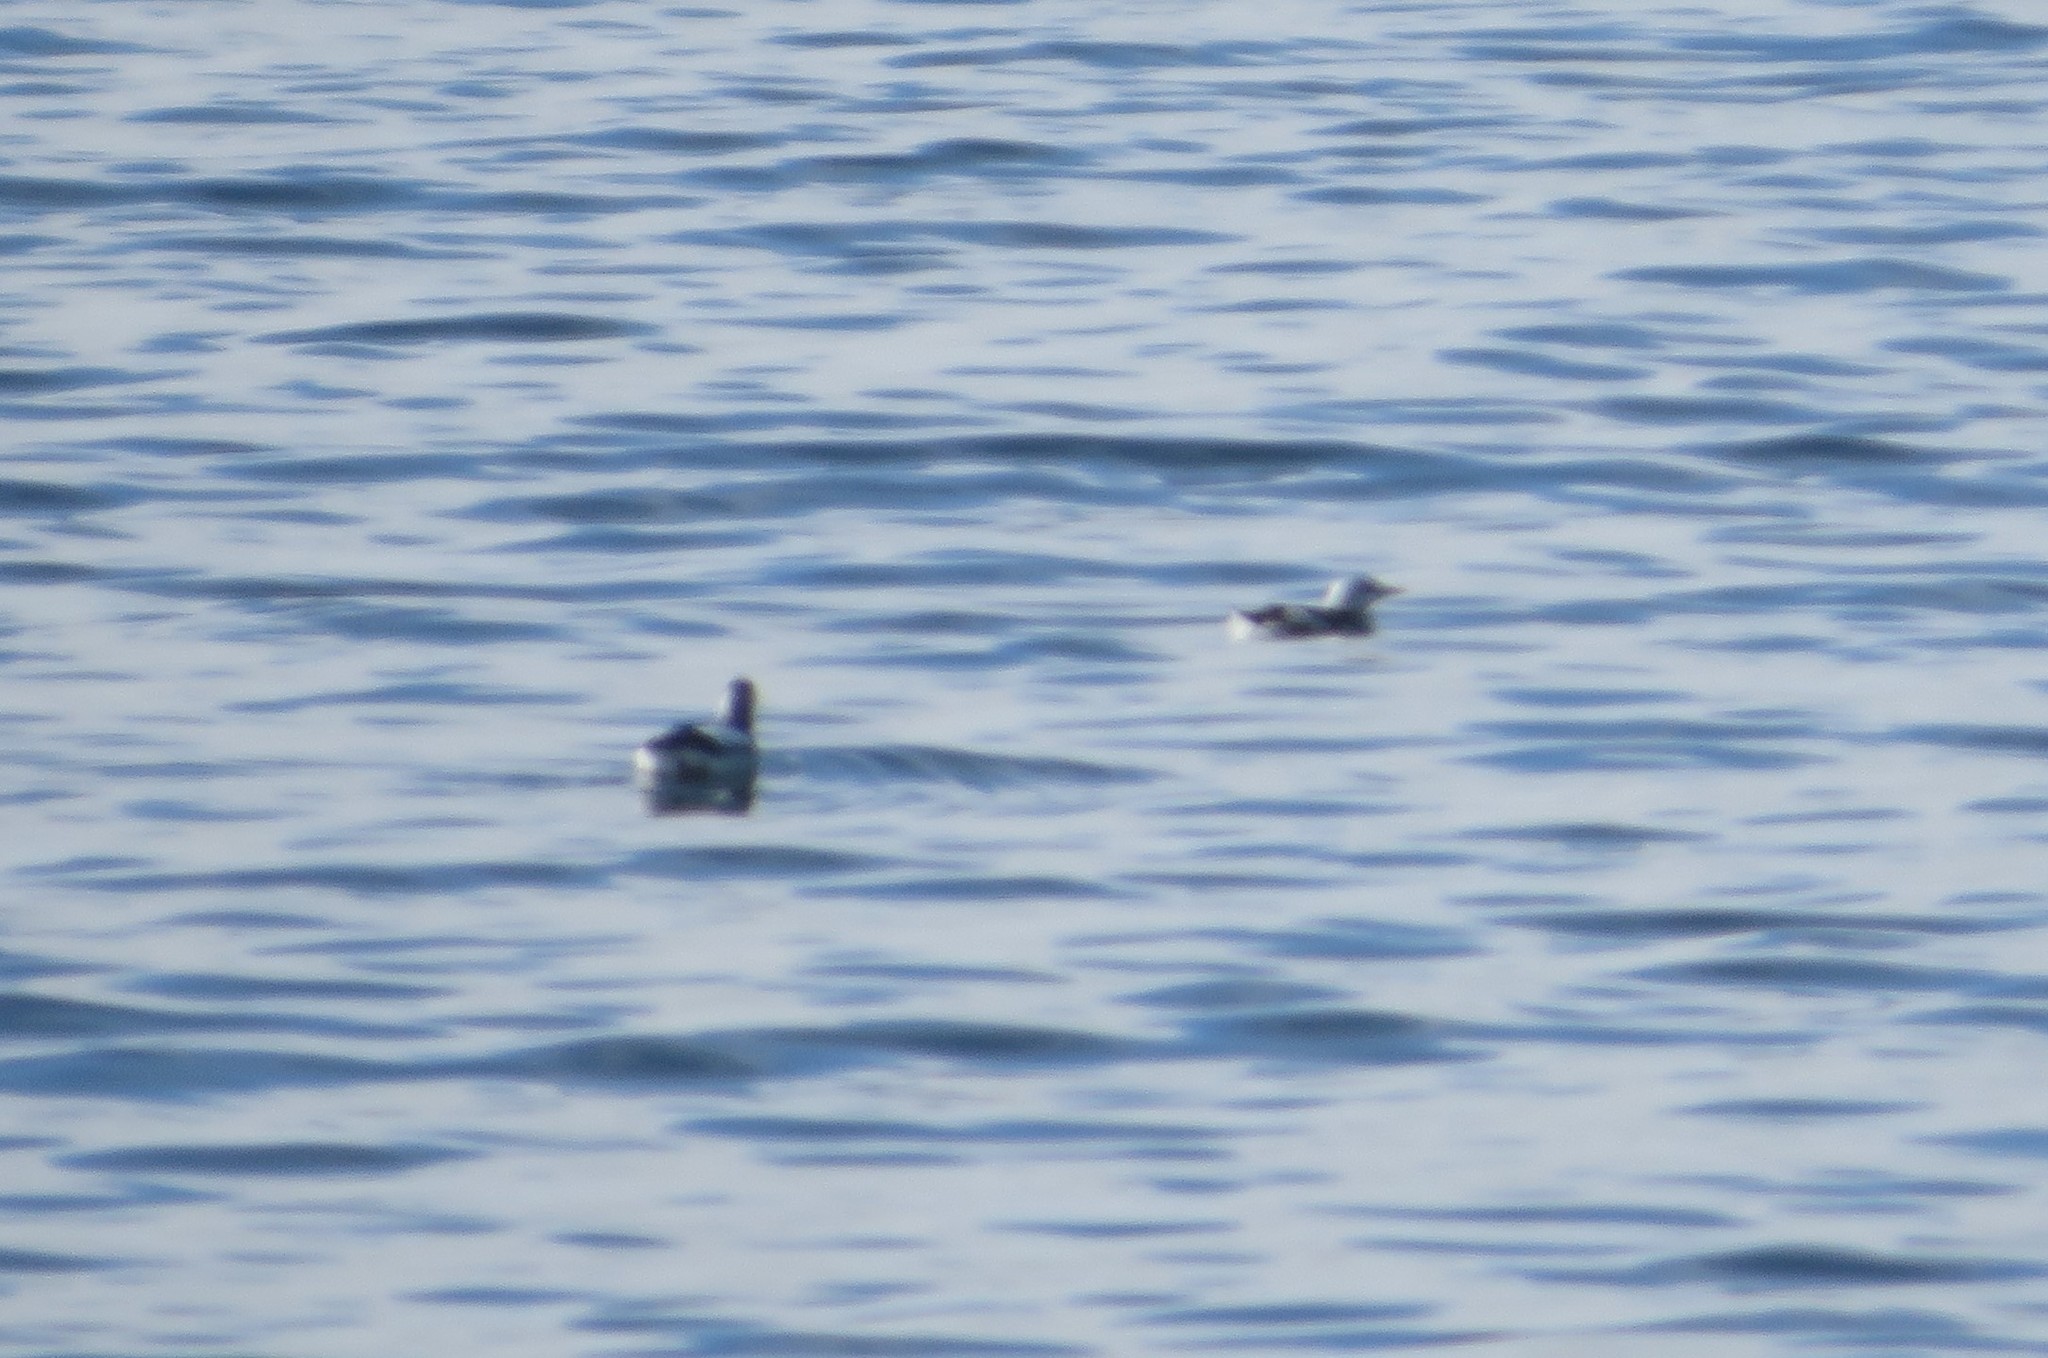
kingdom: Animalia
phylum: Chordata
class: Aves
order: Charadriiformes
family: Alcidae
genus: Cepphus
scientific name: Cepphus grylle
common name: Black guillemot
